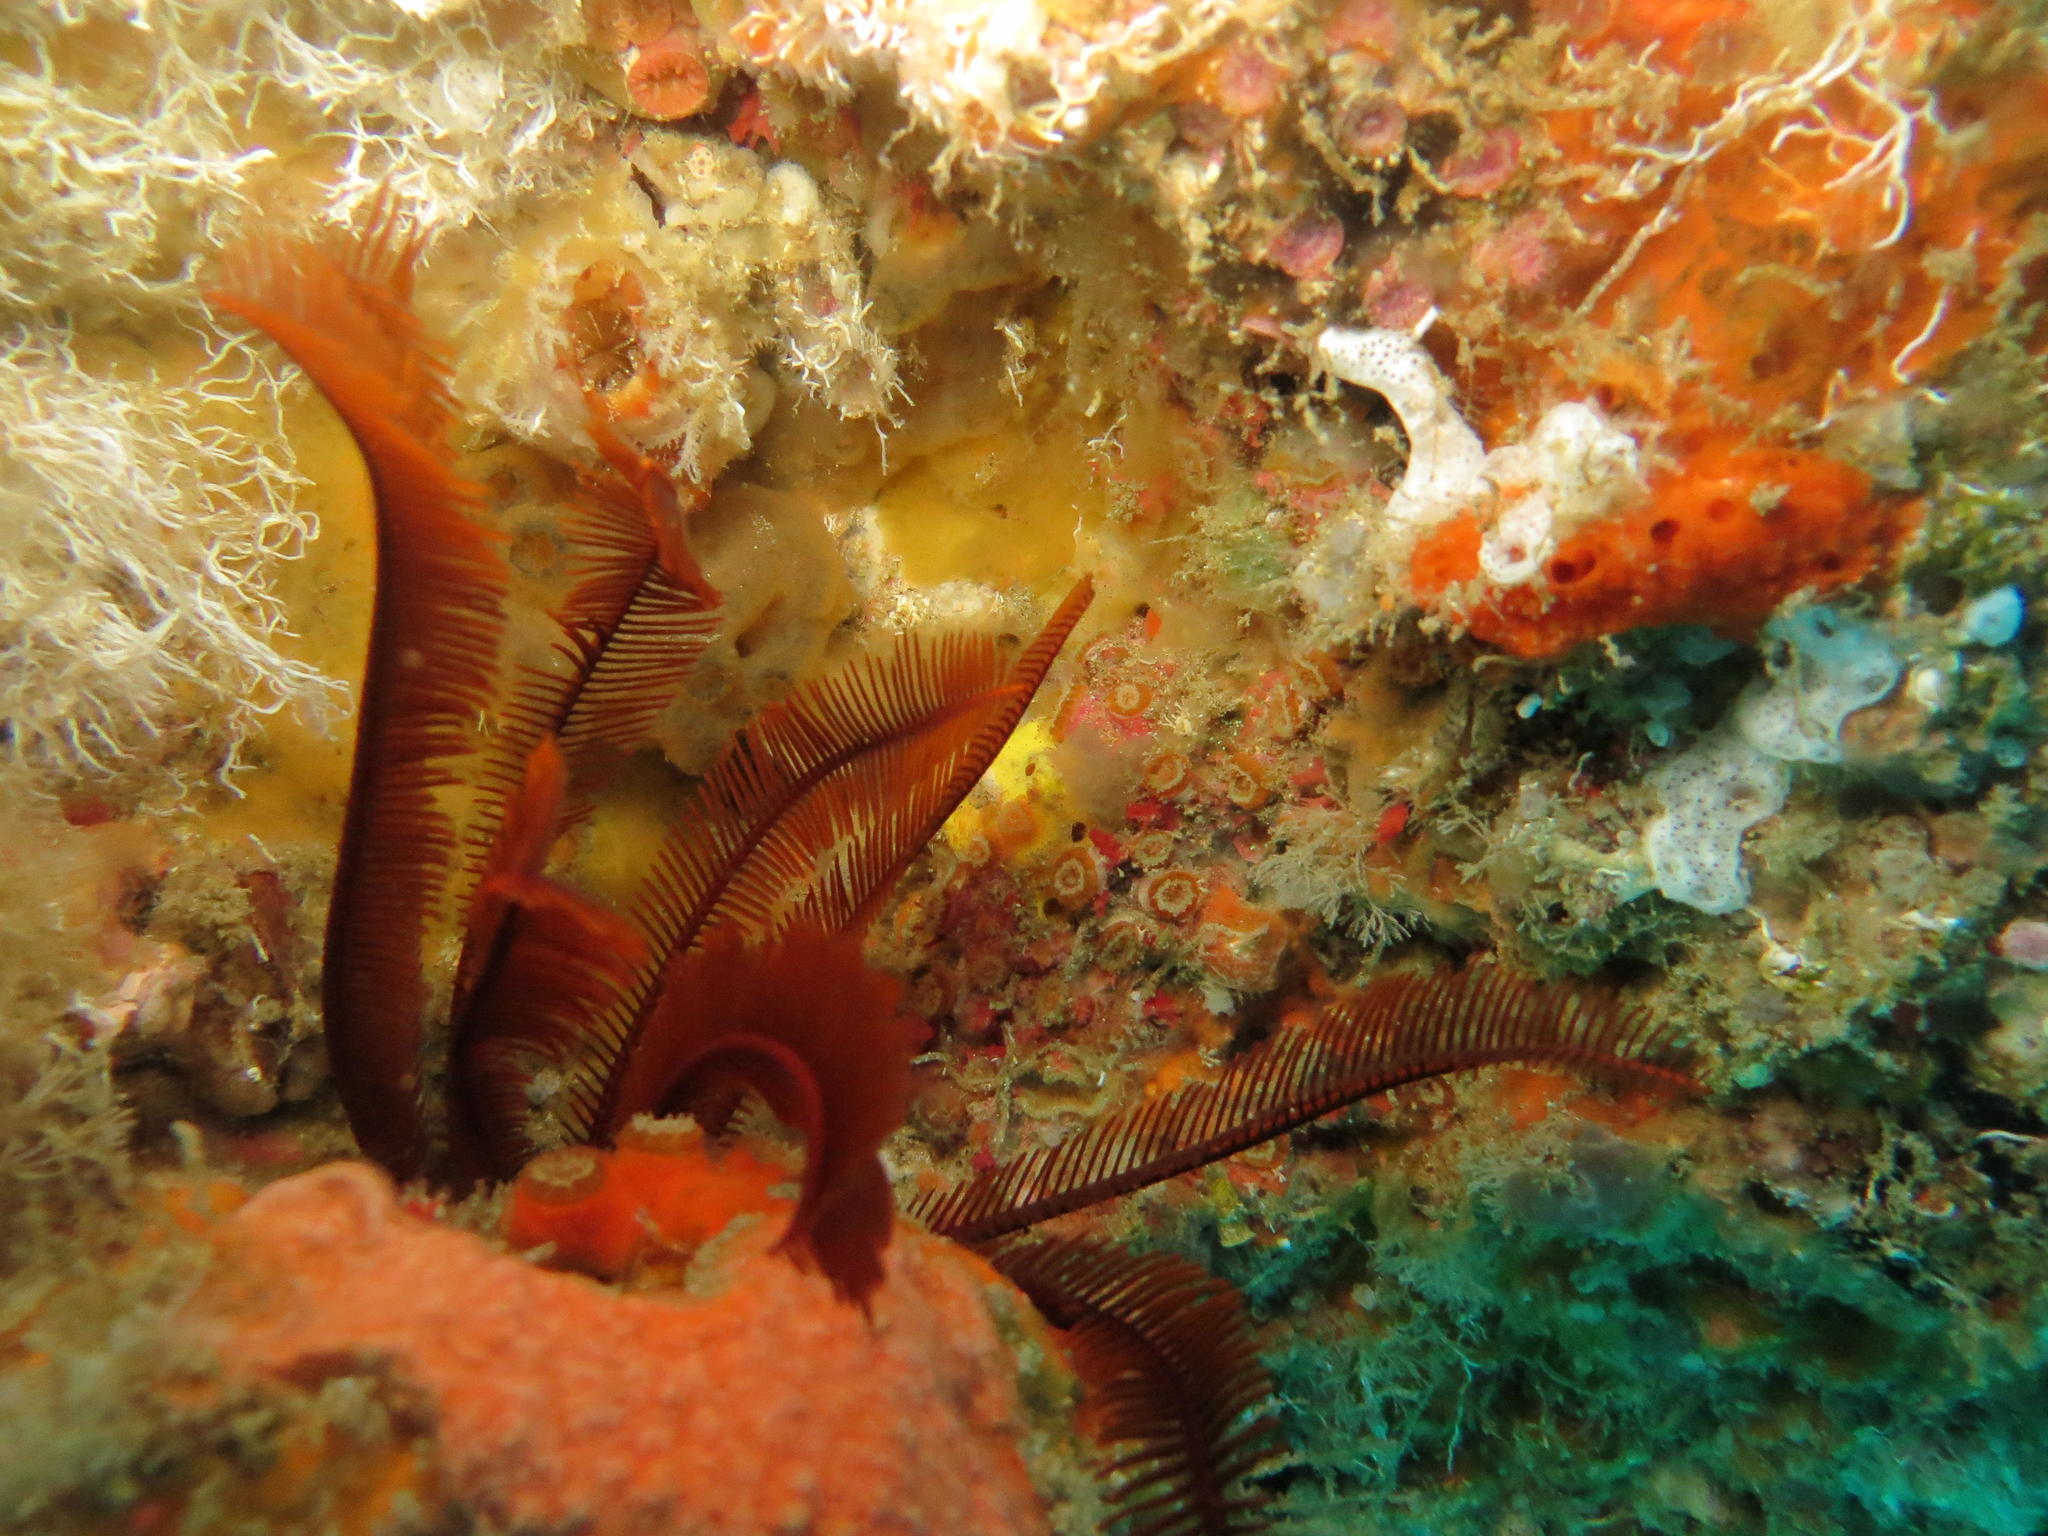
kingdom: Animalia
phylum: Echinodermata
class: Crinoidea
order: Comatulida
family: Tropiometridae
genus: Tropiometra
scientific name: Tropiometra carinata
